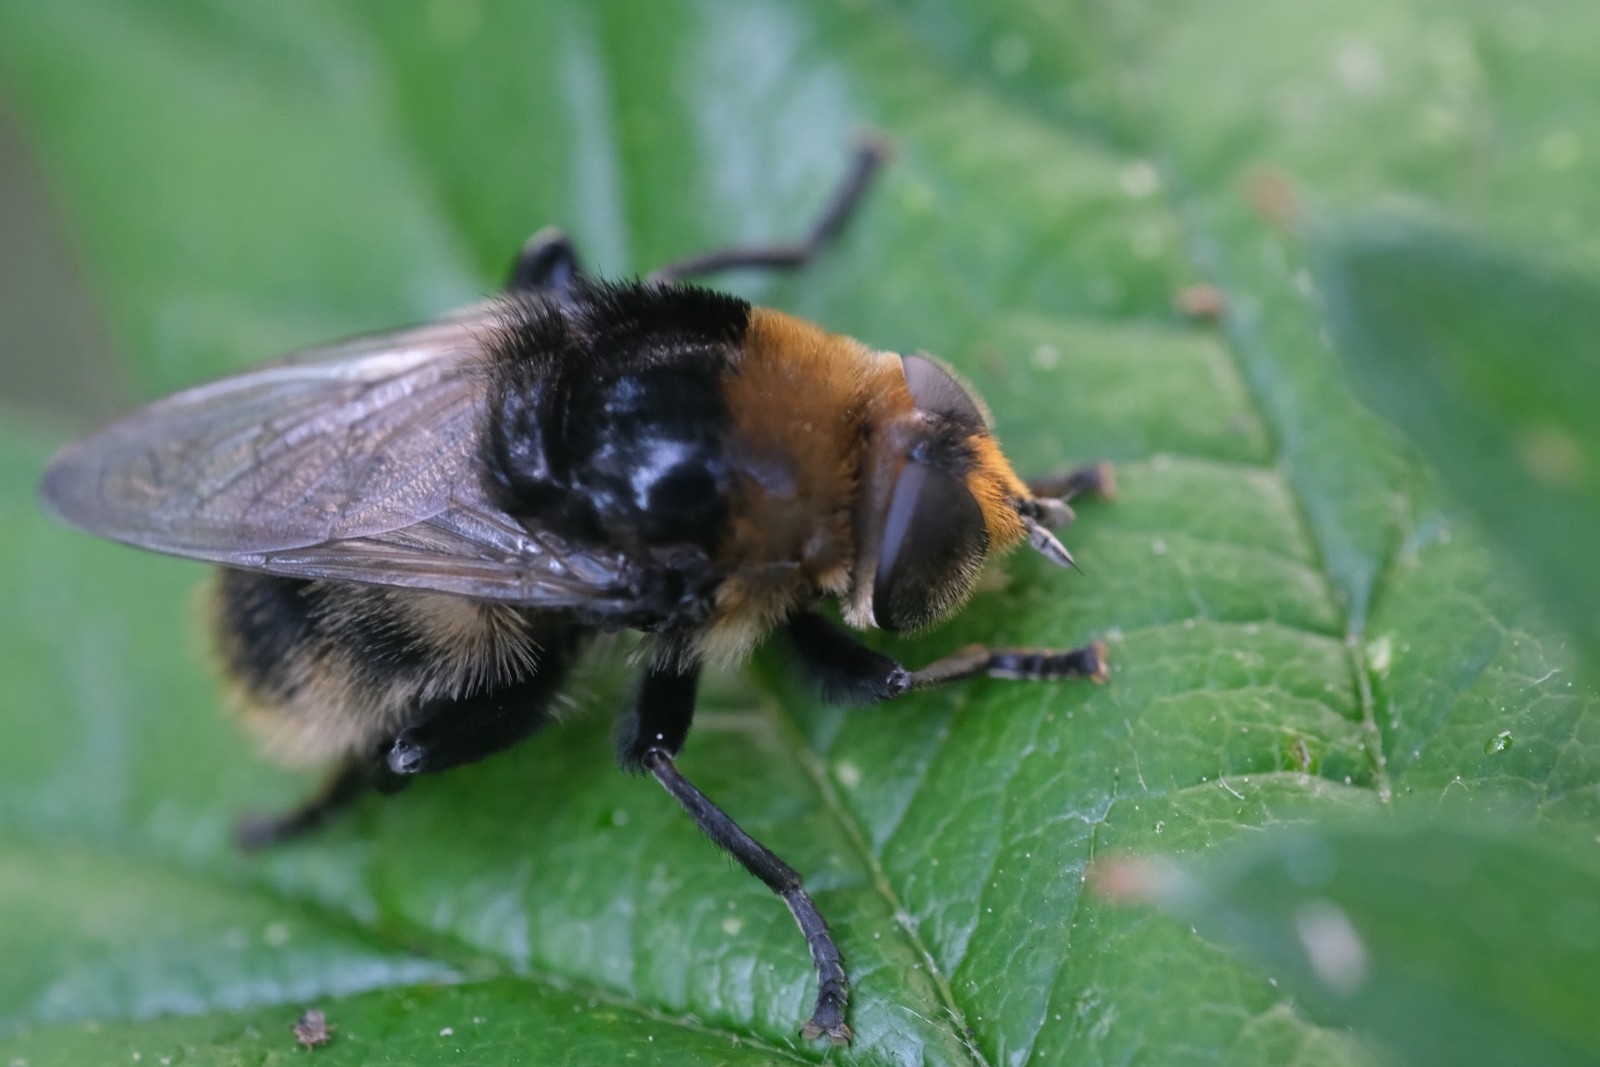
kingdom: Animalia
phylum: Arthropoda
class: Insecta
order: Diptera
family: Syrphidae
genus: Merodon
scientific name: Merodon equestris
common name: Greater bulb-fly
